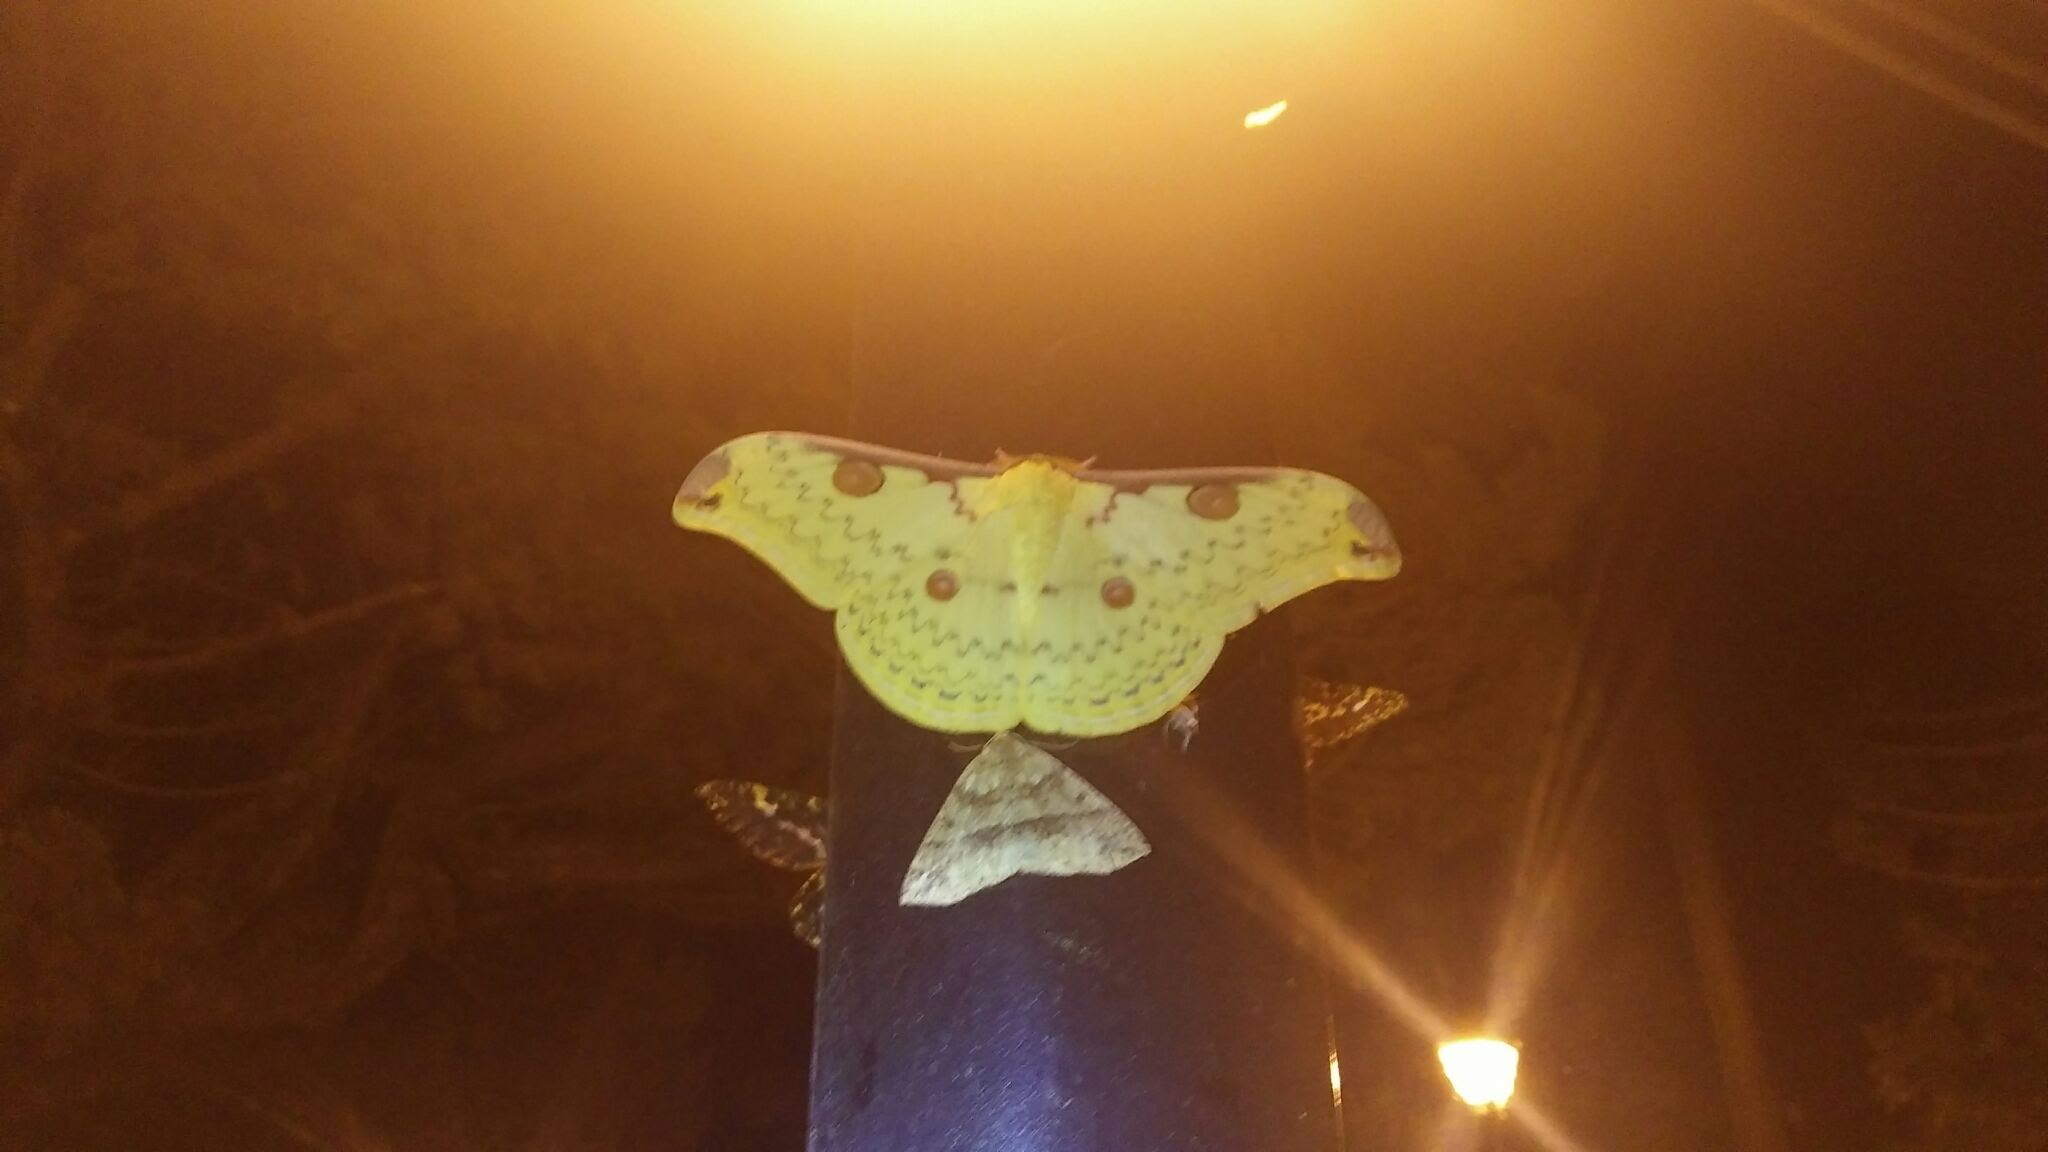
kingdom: Animalia
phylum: Arthropoda
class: Insecta
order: Lepidoptera
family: Saturniidae
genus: Loepa
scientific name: Loepa mirandula
